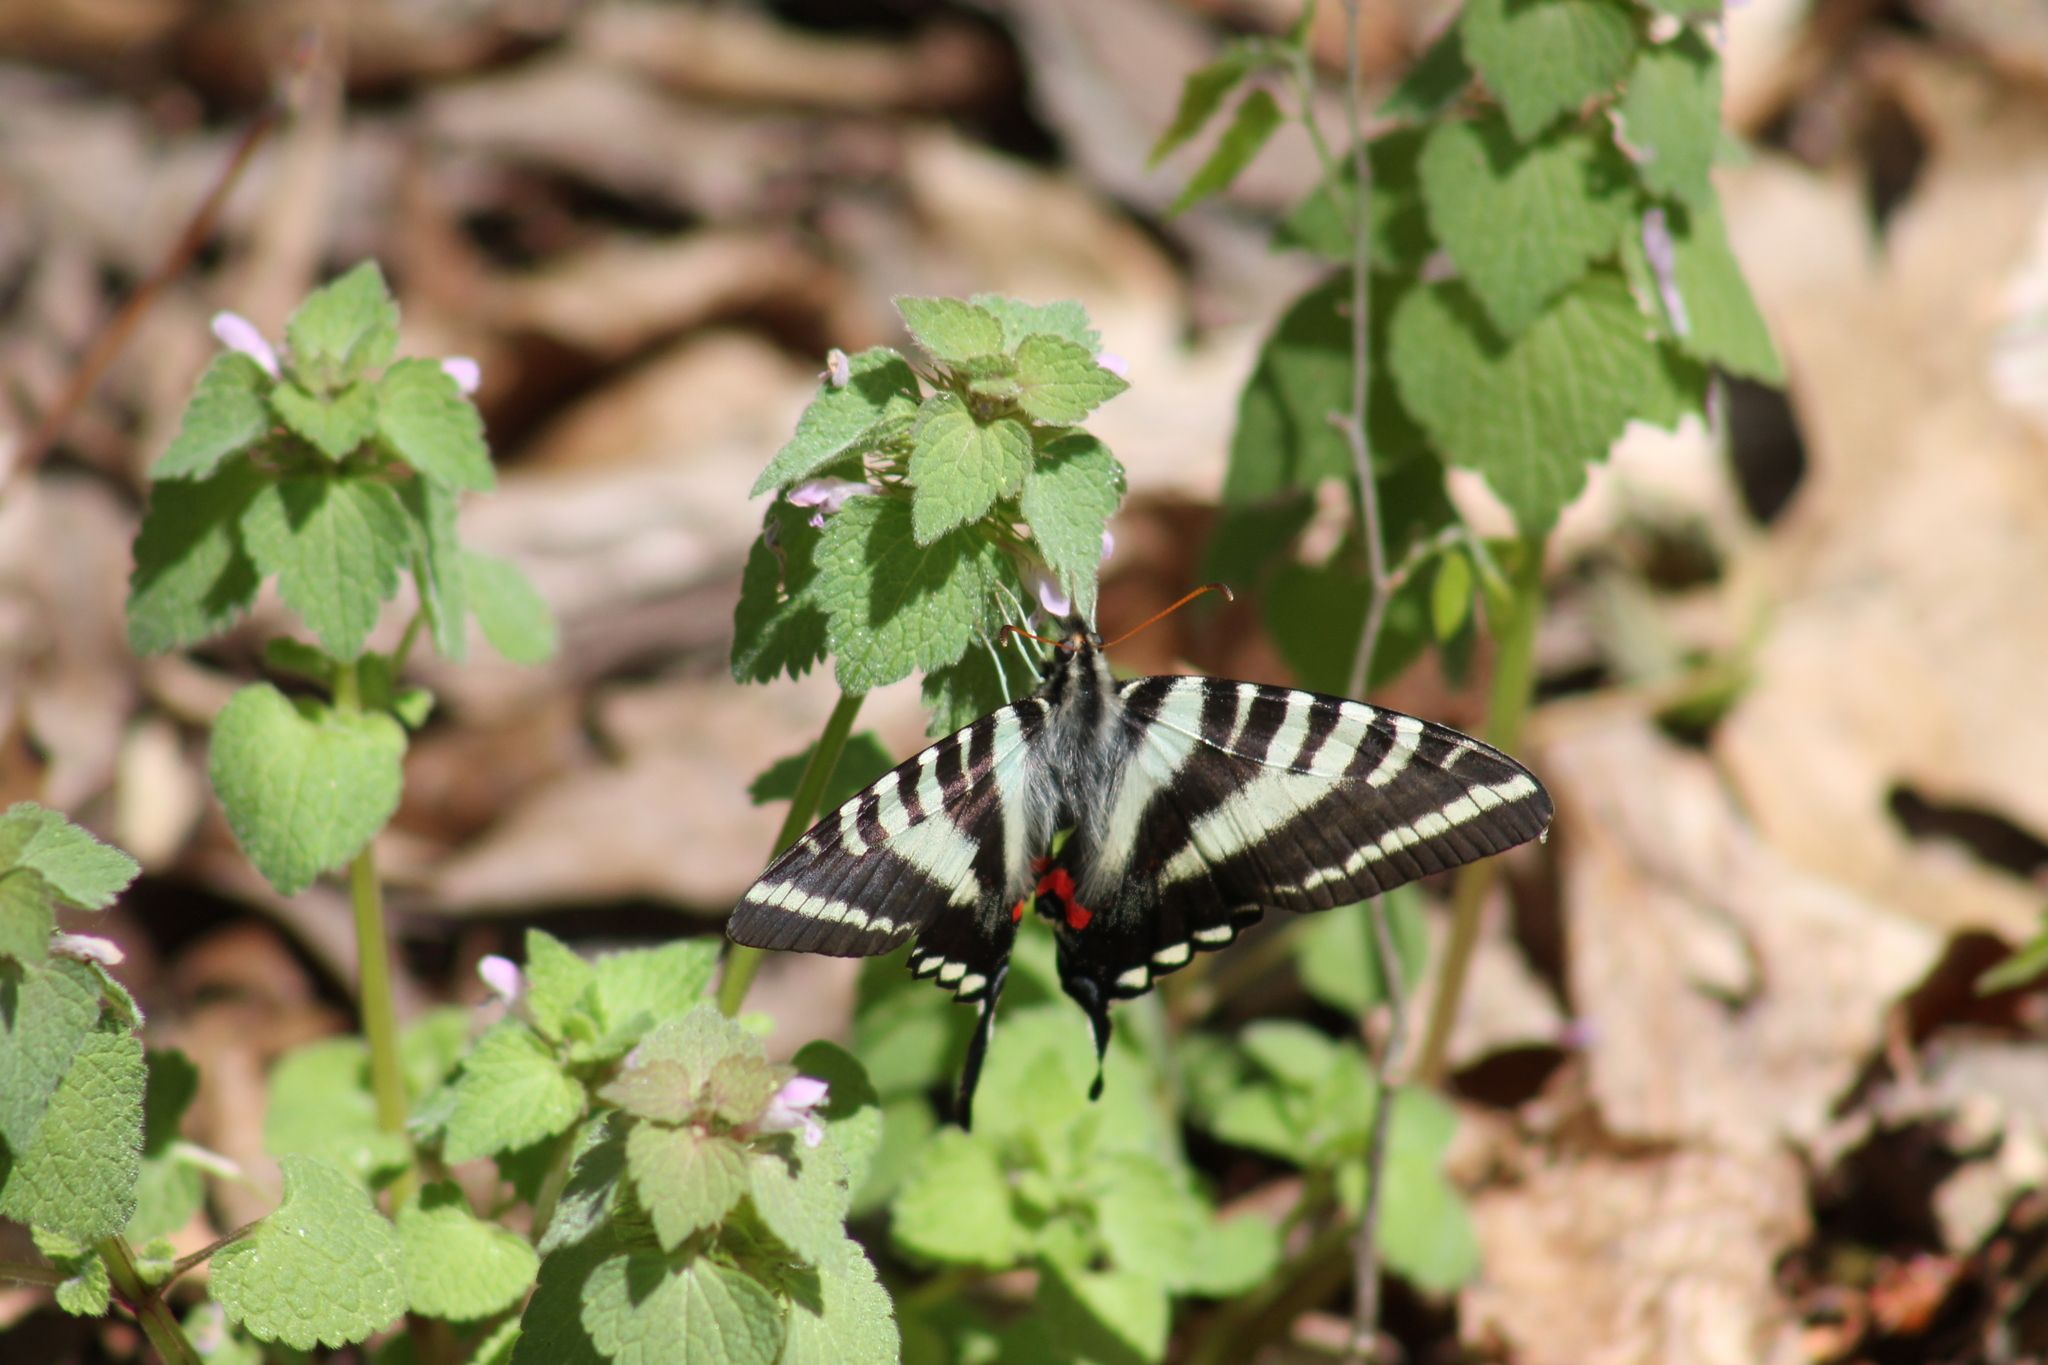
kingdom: Animalia
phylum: Arthropoda
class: Insecta
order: Lepidoptera
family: Papilionidae
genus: Protographium
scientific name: Protographium marcellus
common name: Zebra swallowtail
